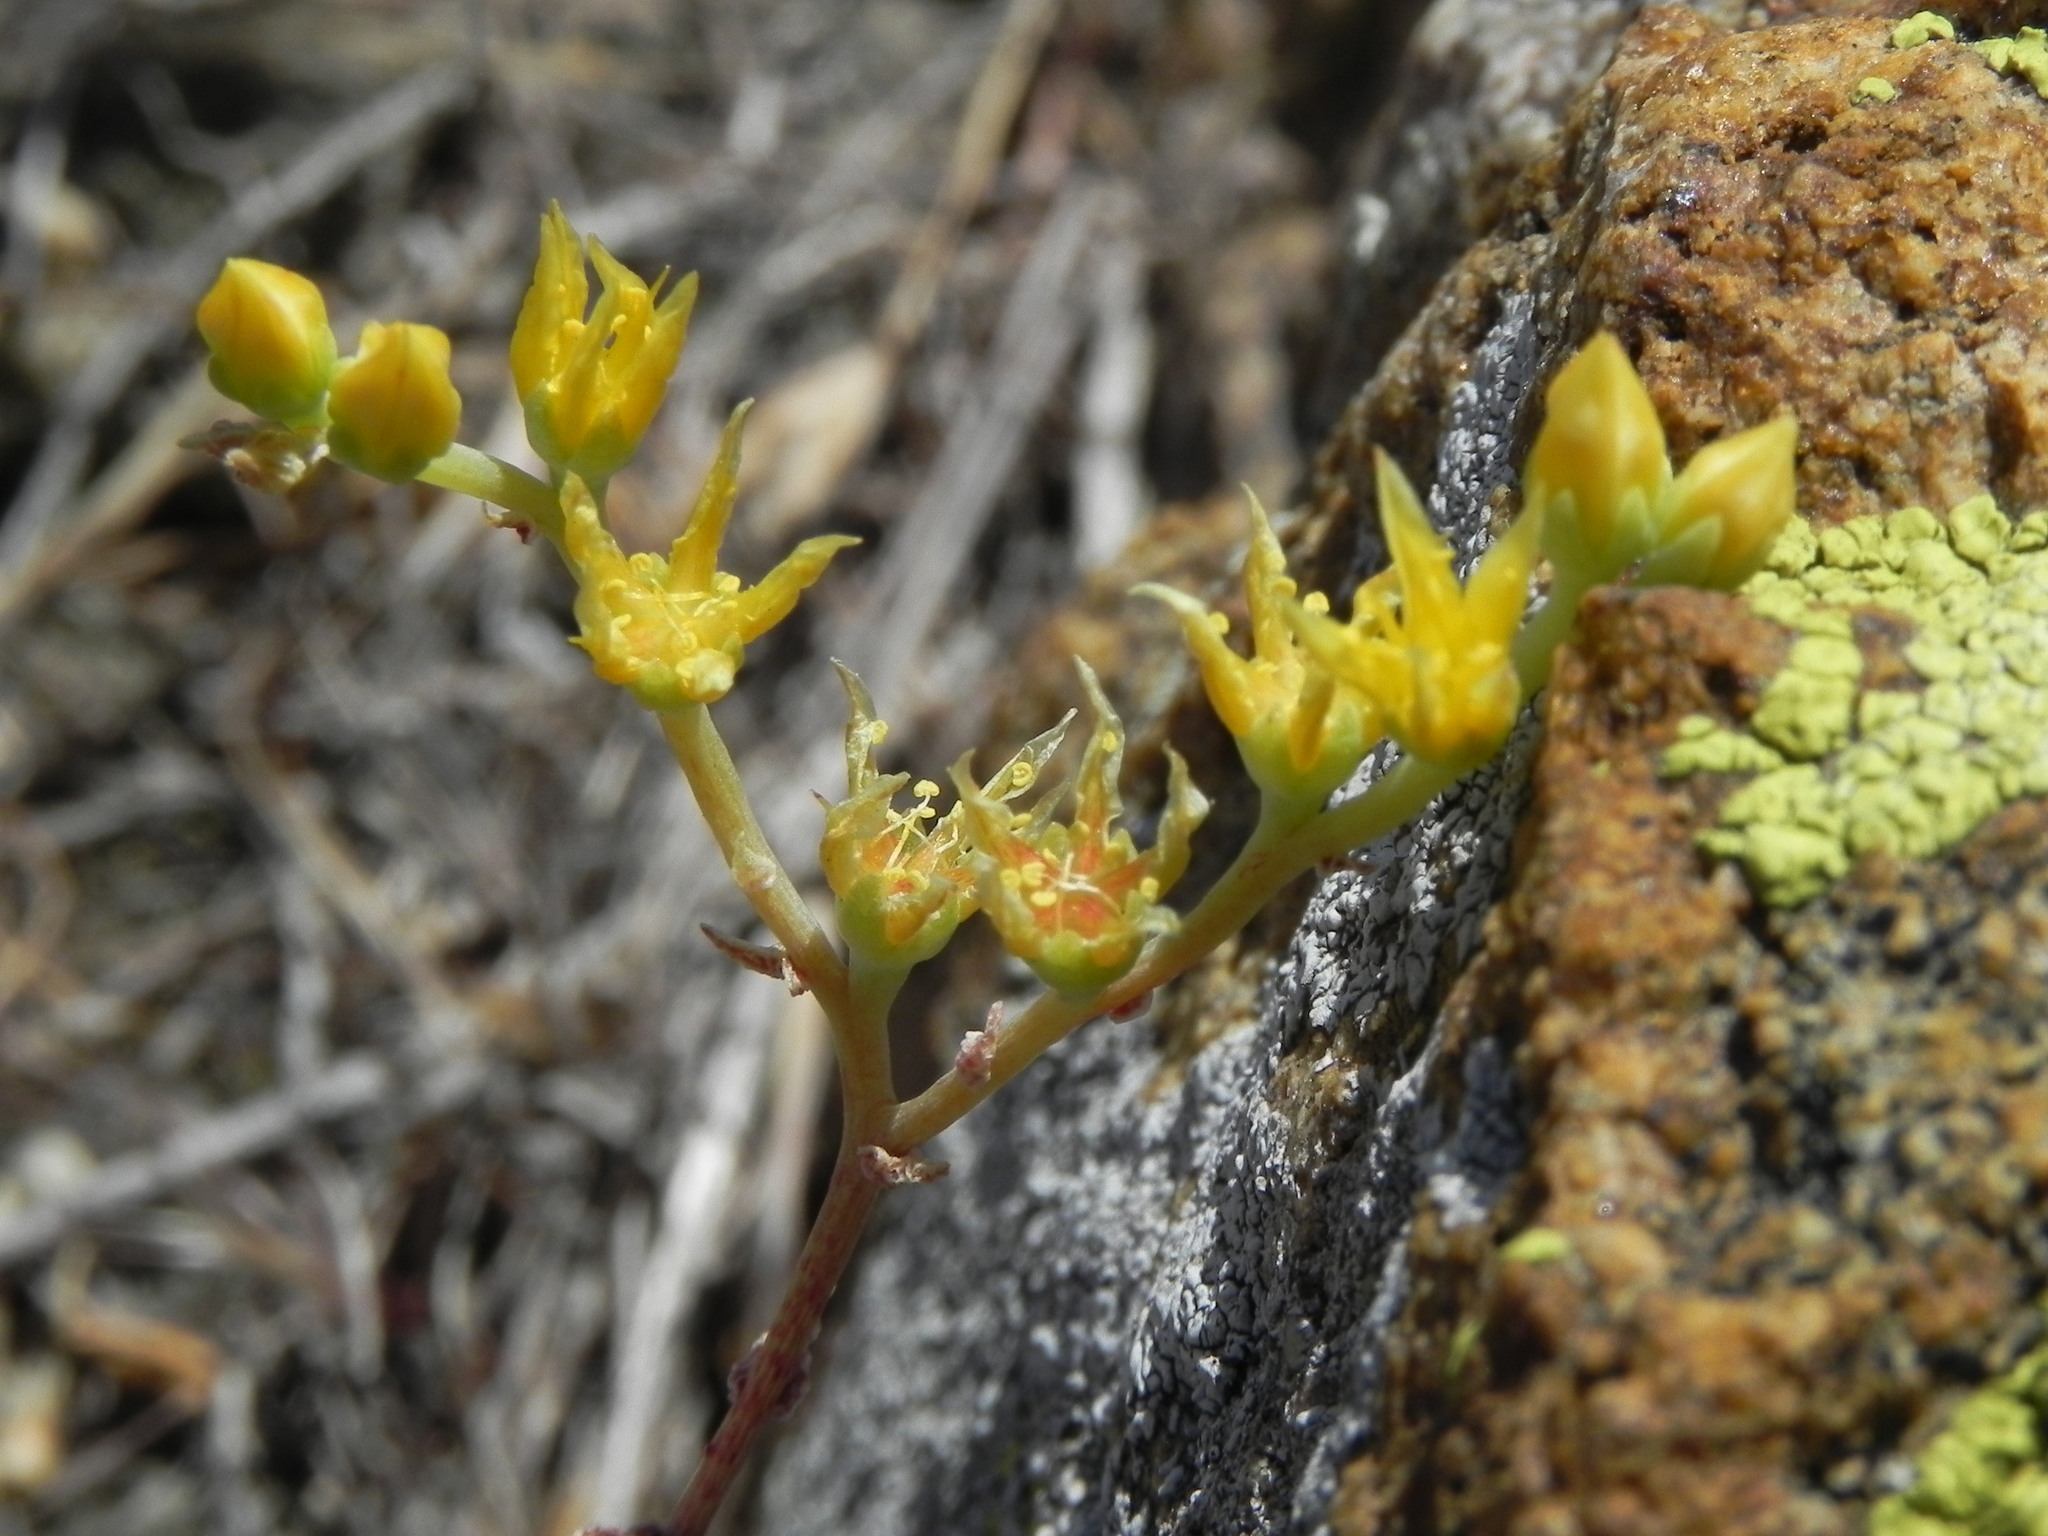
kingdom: Plantae
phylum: Tracheophyta
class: Magnoliopsida
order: Saxifragales
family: Crassulaceae
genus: Dudleya
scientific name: Dudleya variegata
